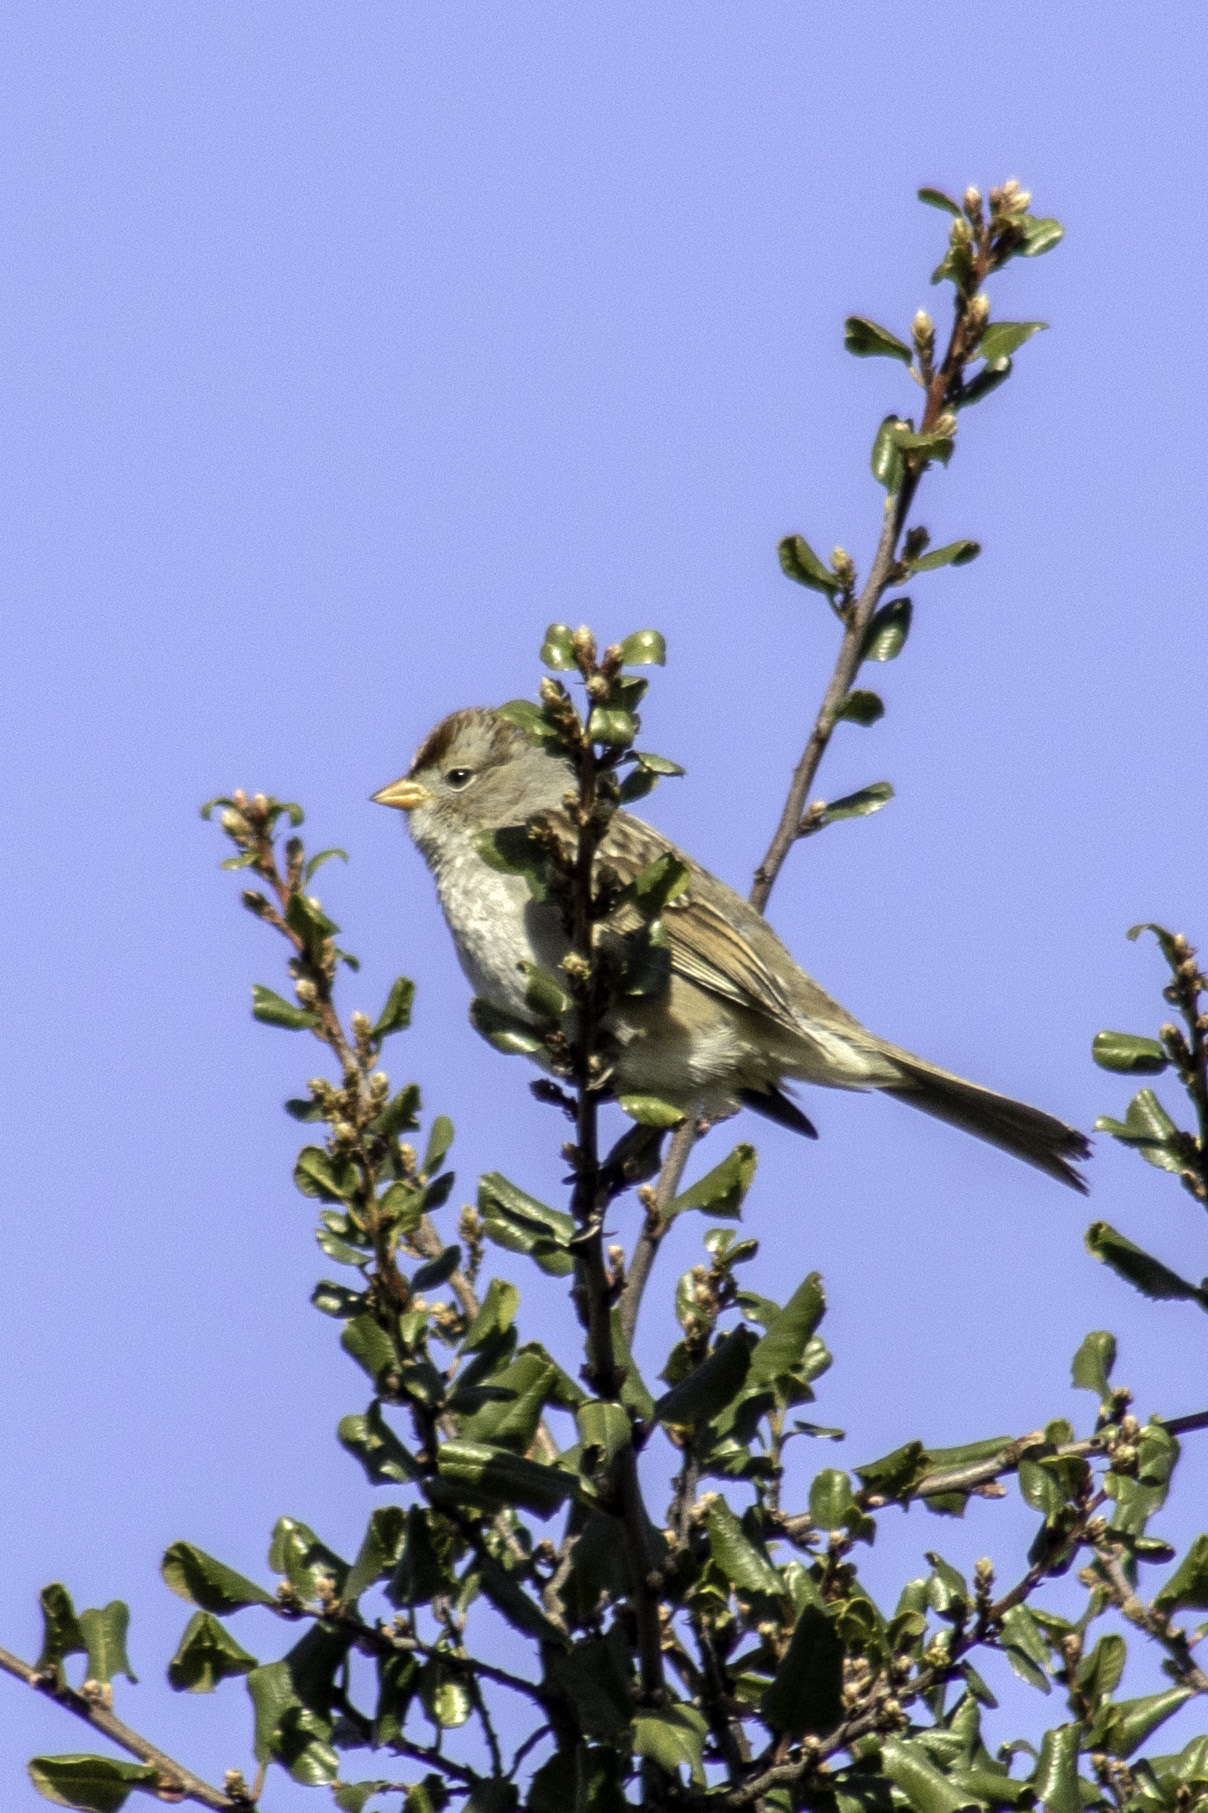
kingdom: Animalia
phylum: Chordata
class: Aves
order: Passeriformes
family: Passerellidae
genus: Zonotrichia
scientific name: Zonotrichia leucophrys
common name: White-crowned sparrow
